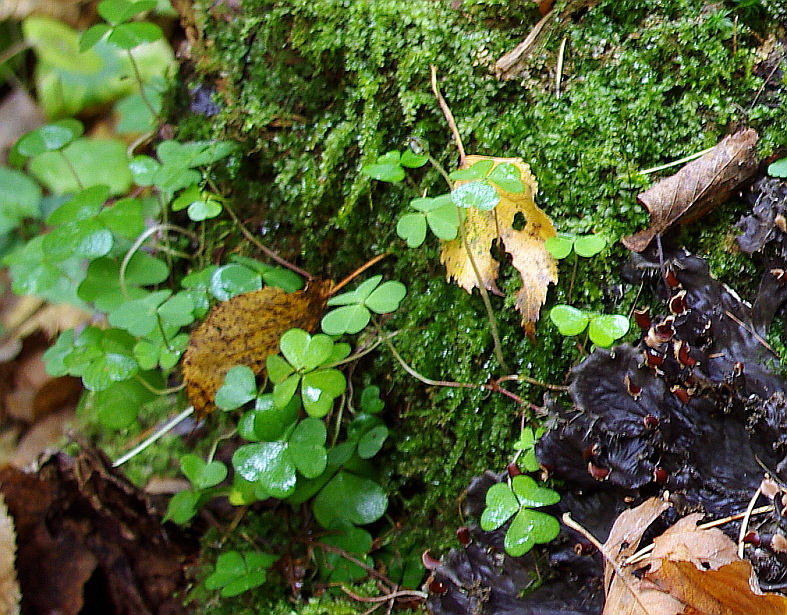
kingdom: Plantae
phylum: Tracheophyta
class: Magnoliopsida
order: Oxalidales
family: Oxalidaceae
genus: Oxalis
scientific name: Oxalis acetosella
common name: Wood-sorrel
